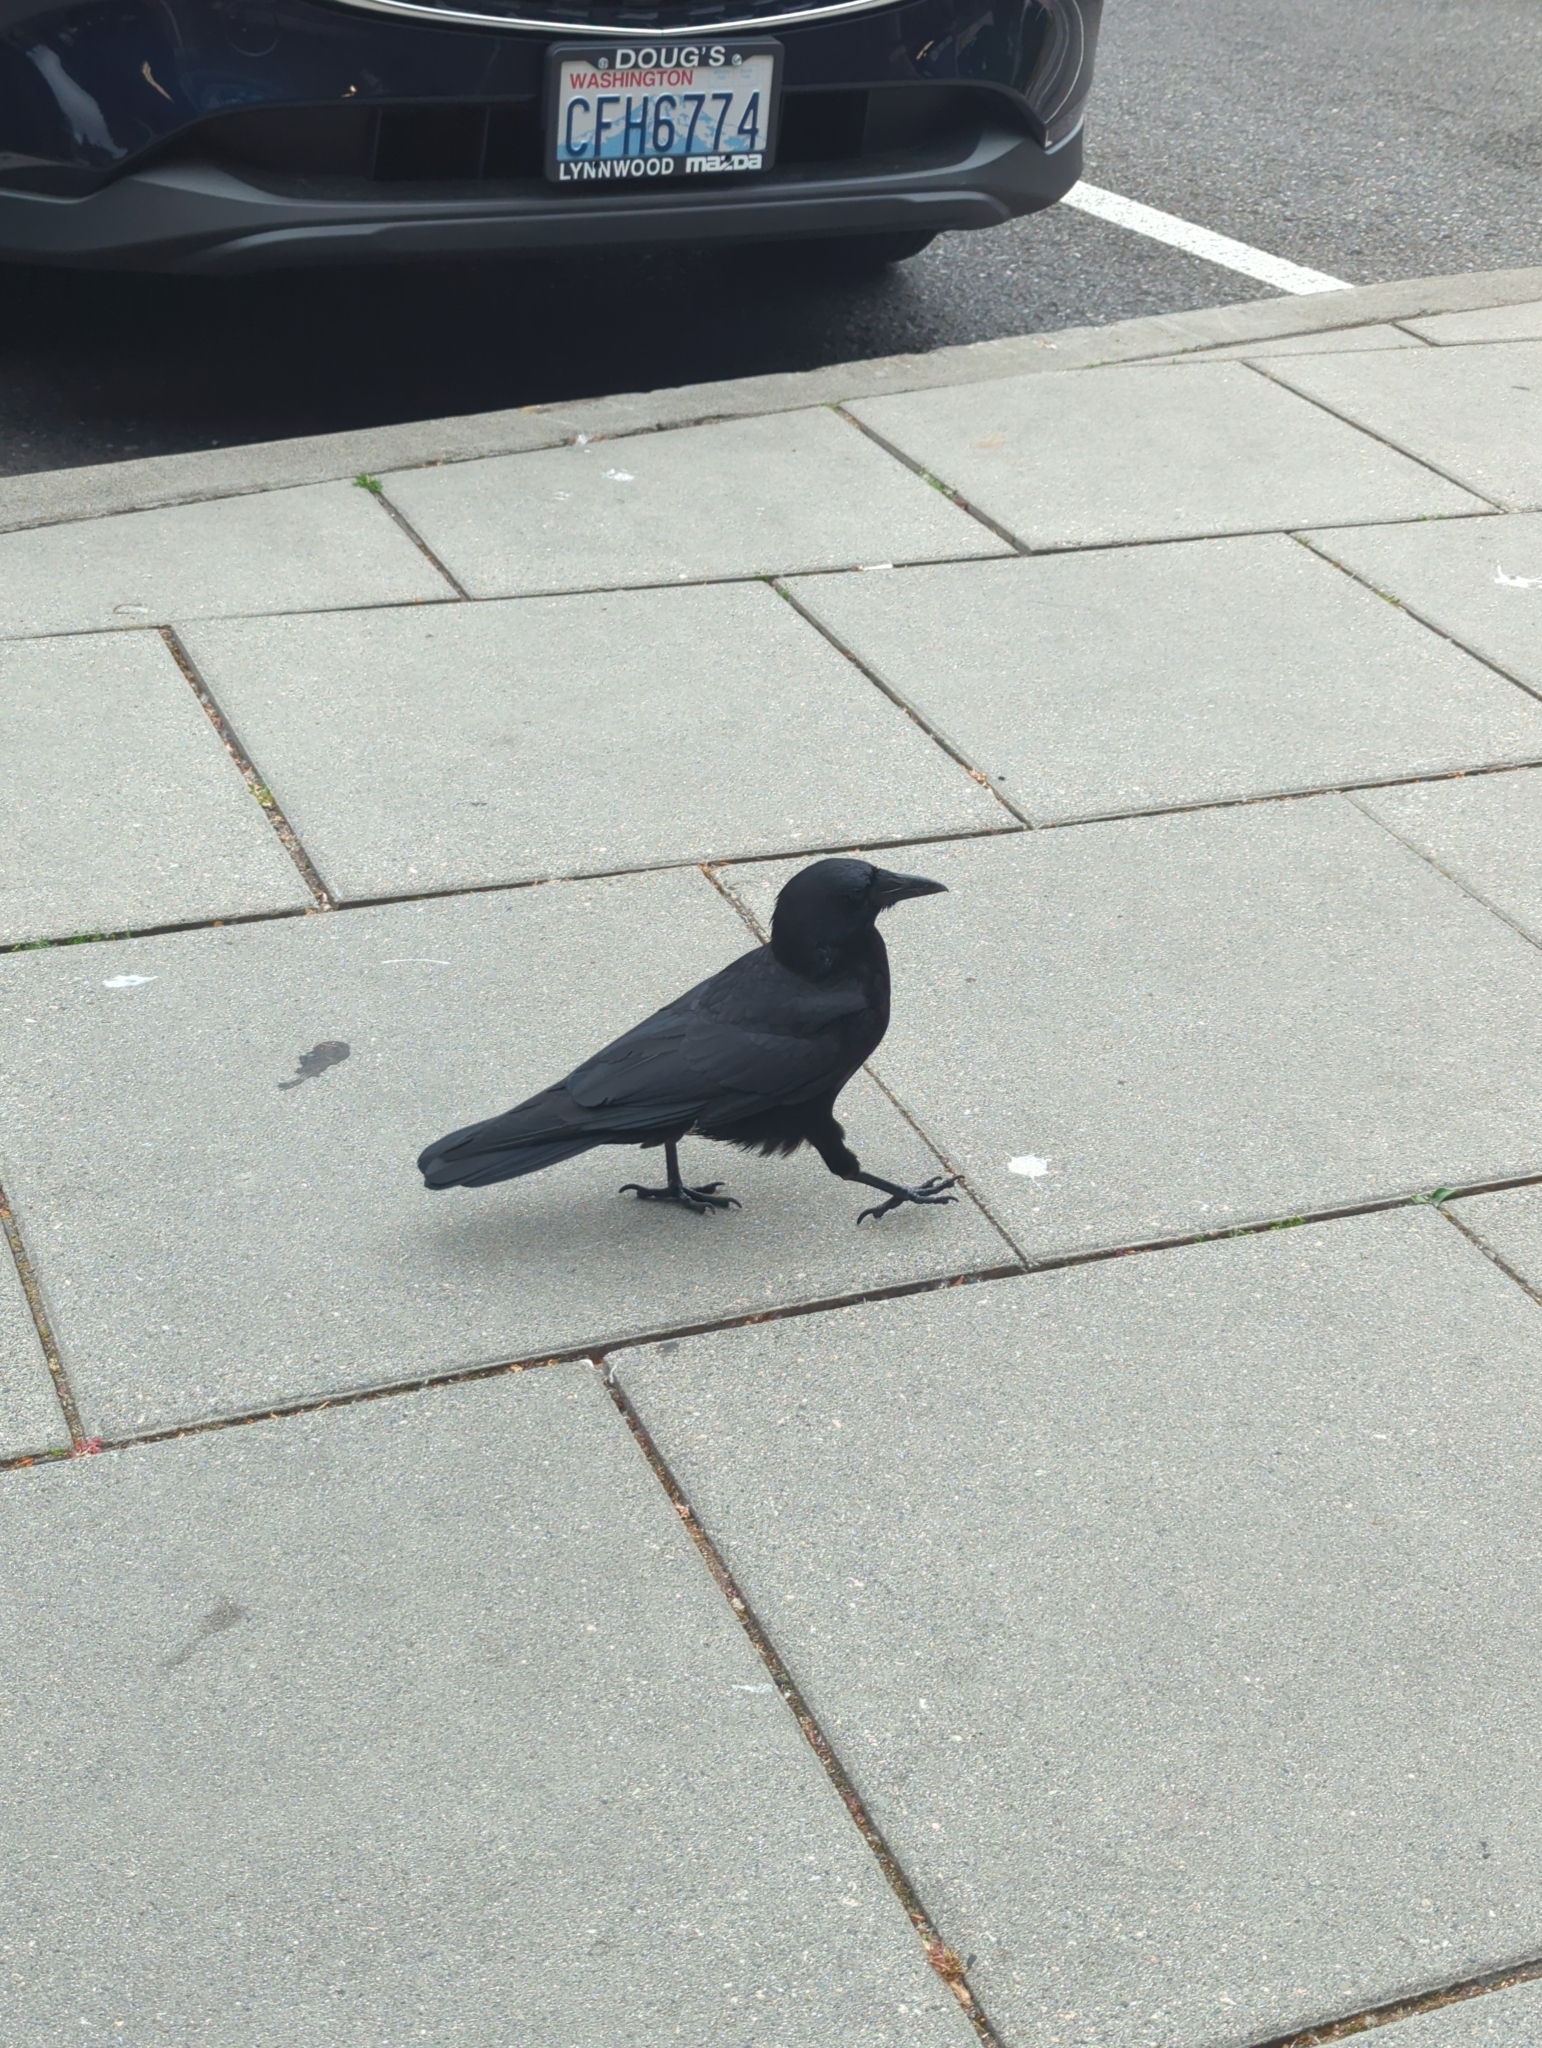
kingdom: Animalia
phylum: Chordata
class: Aves
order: Passeriformes
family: Corvidae
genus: Corvus
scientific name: Corvus brachyrhynchos
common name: American crow
